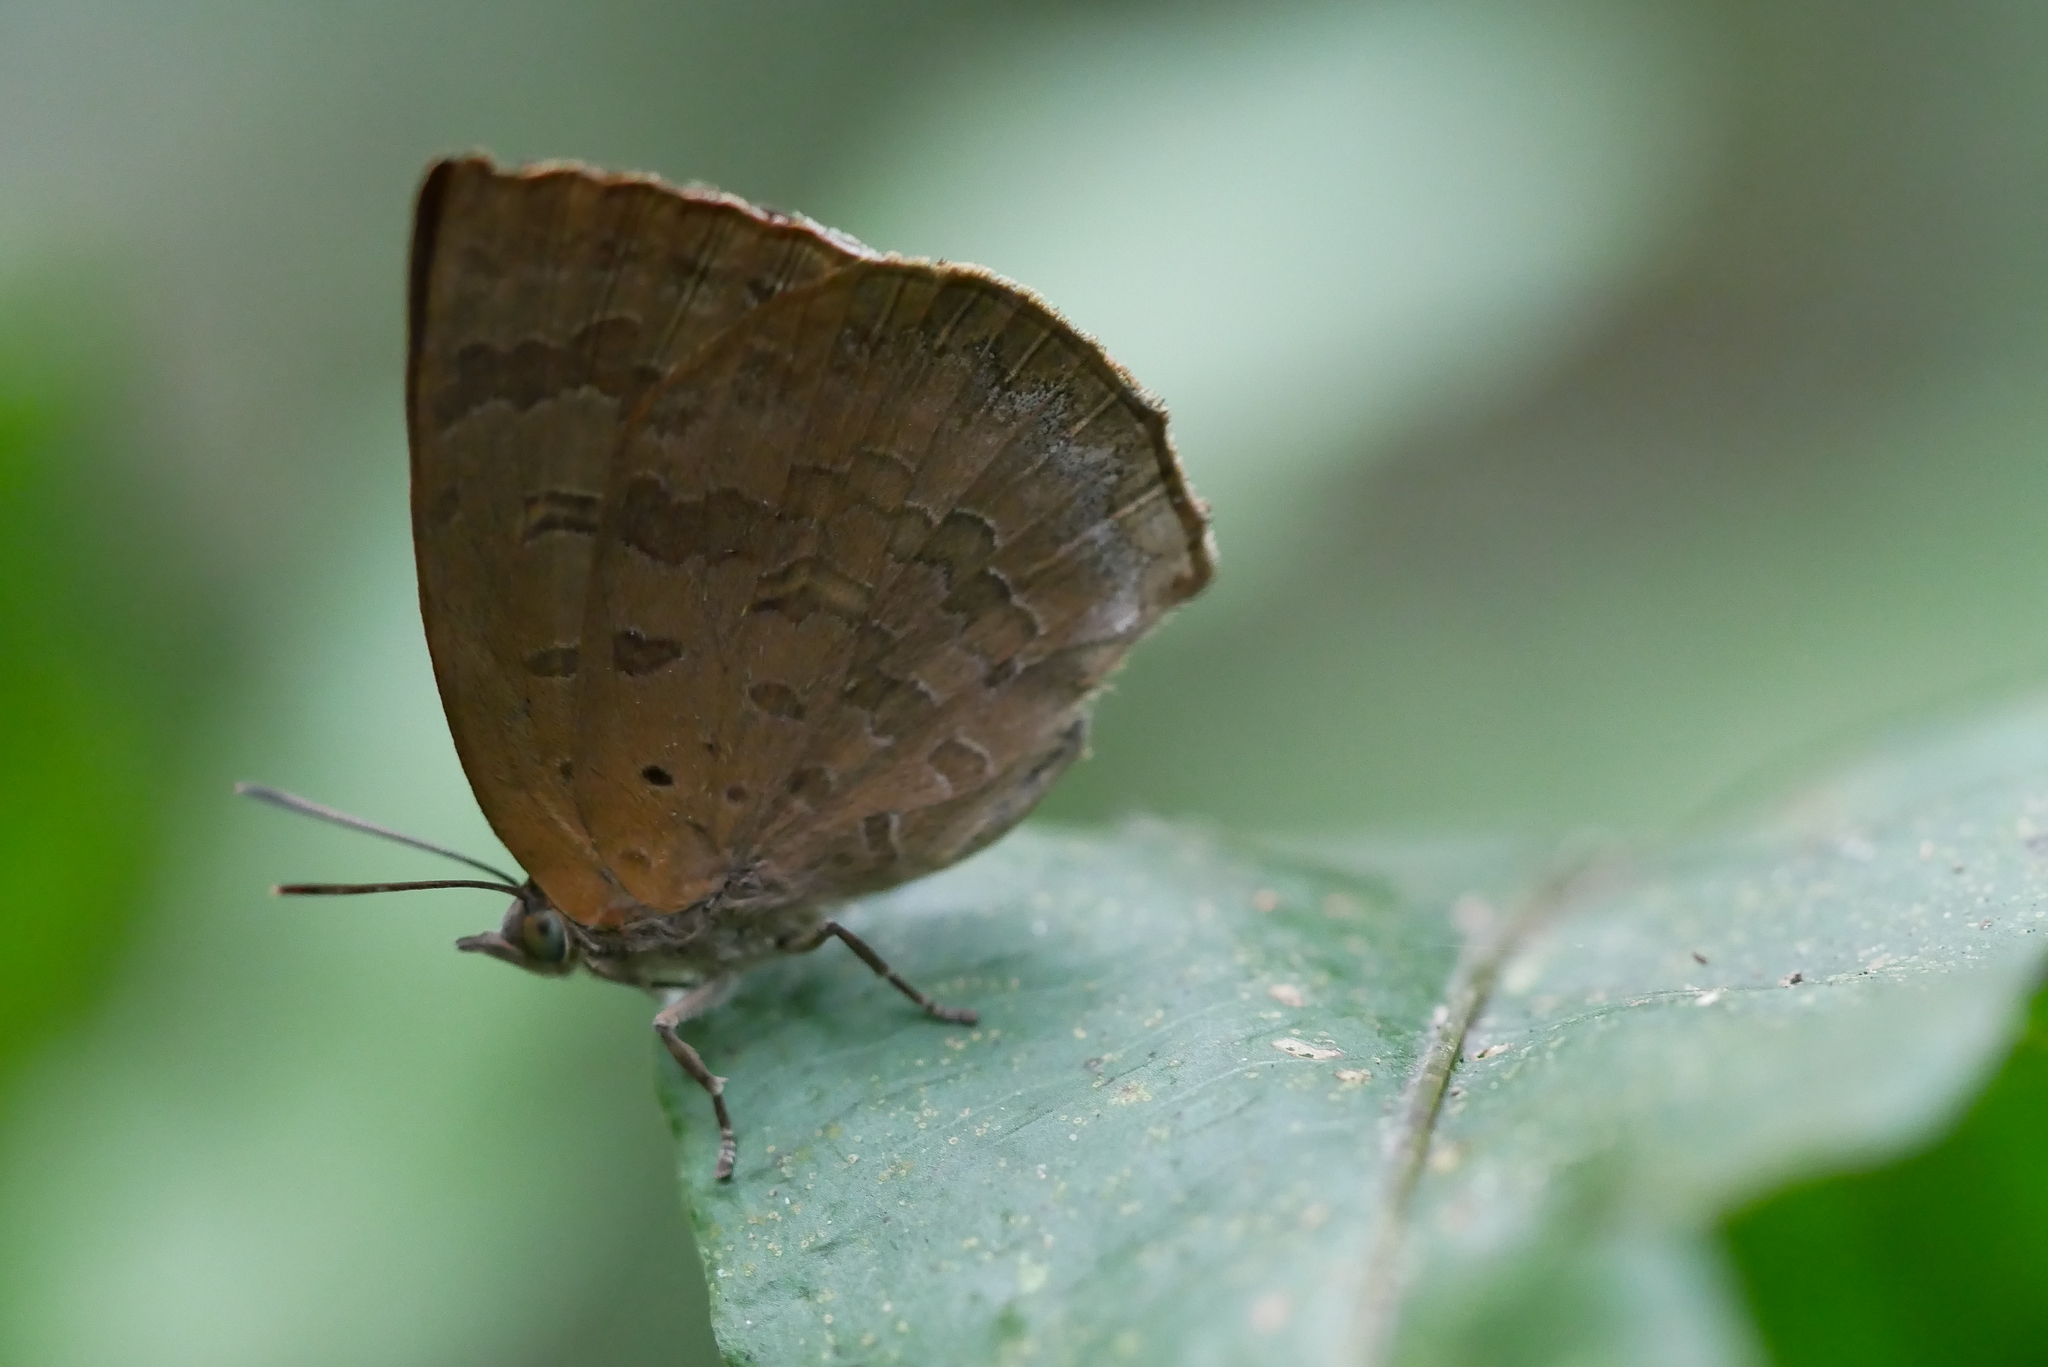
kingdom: Animalia
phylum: Arthropoda
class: Insecta
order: Lepidoptera
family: Lycaenidae
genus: Arhopala
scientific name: Arhopala japonica
